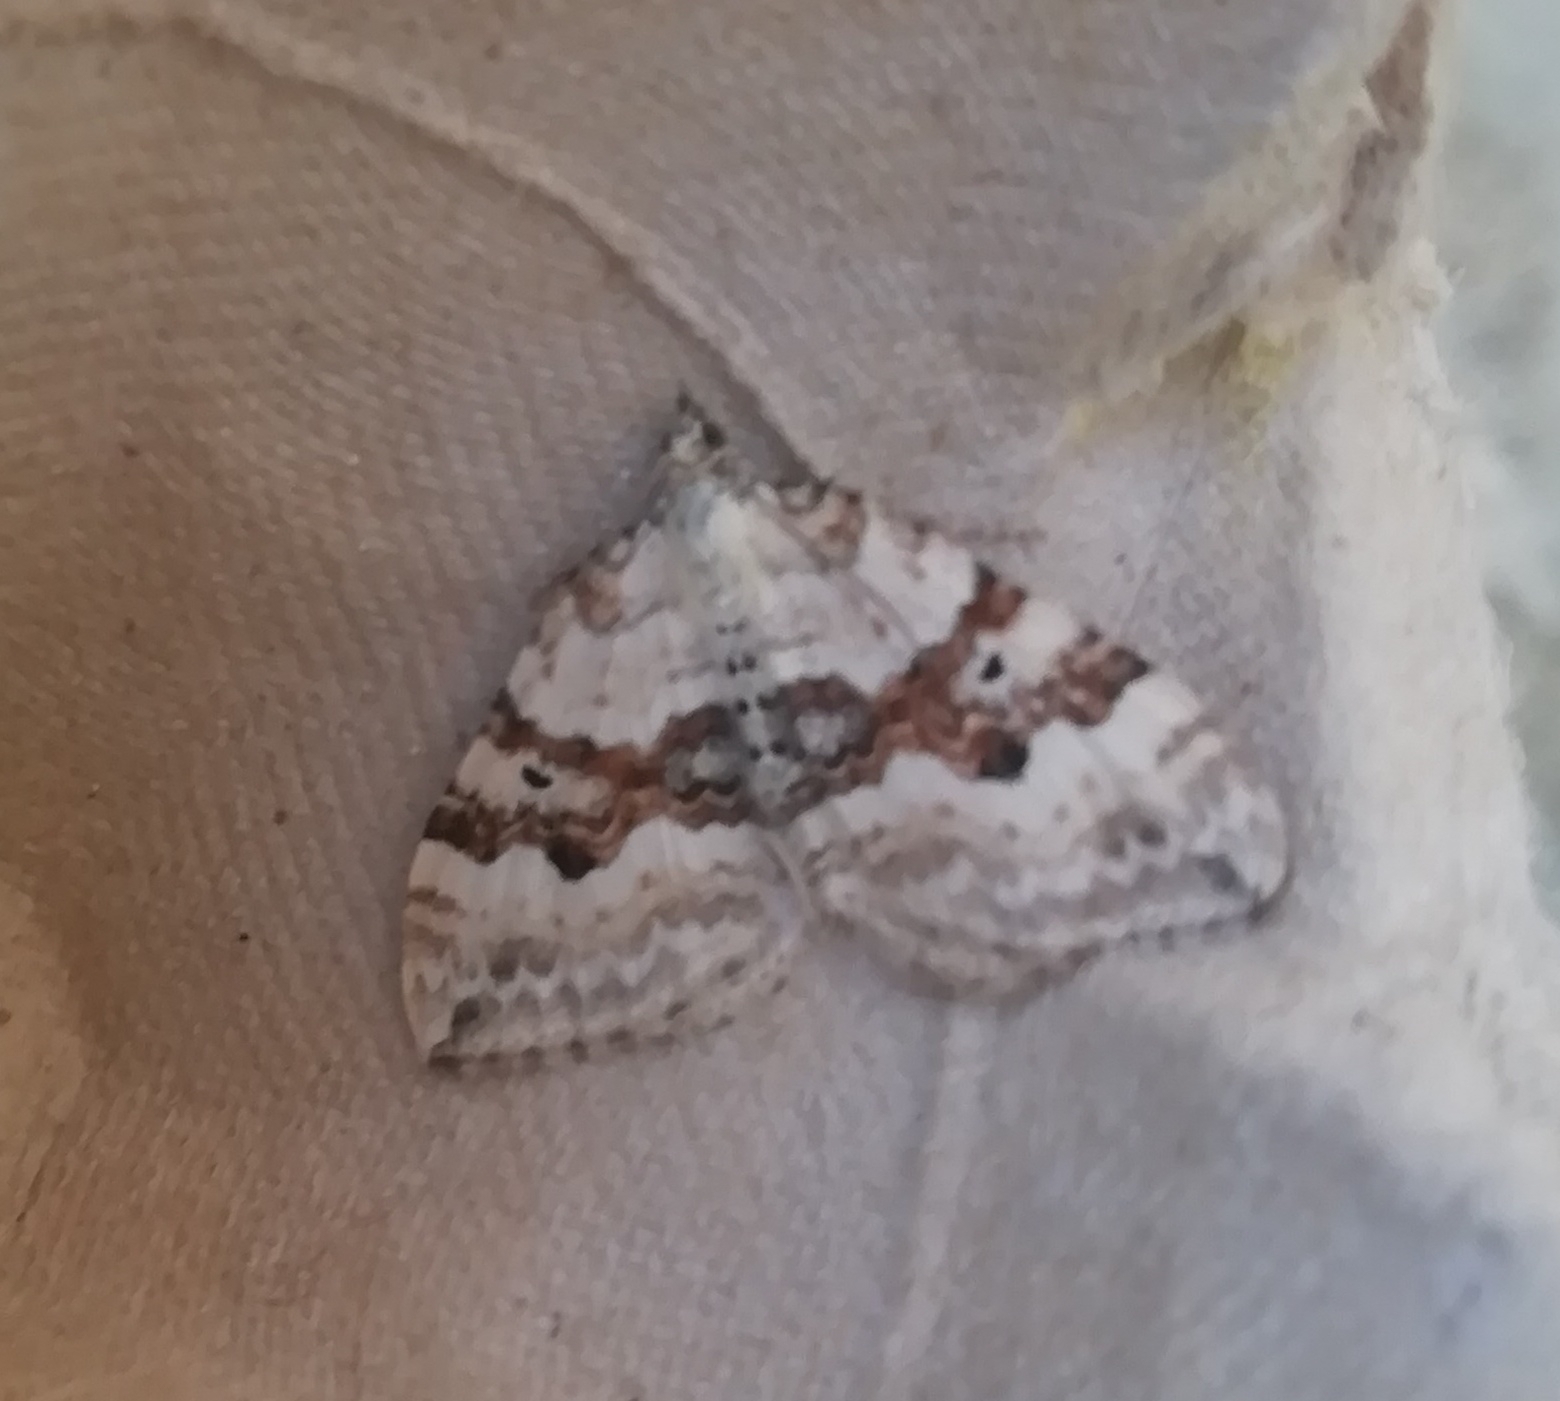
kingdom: Animalia
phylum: Arthropoda
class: Insecta
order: Lepidoptera
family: Geometridae
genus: Xanthorhoe
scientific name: Xanthorhoe montanata
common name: Silver-ground carpet
